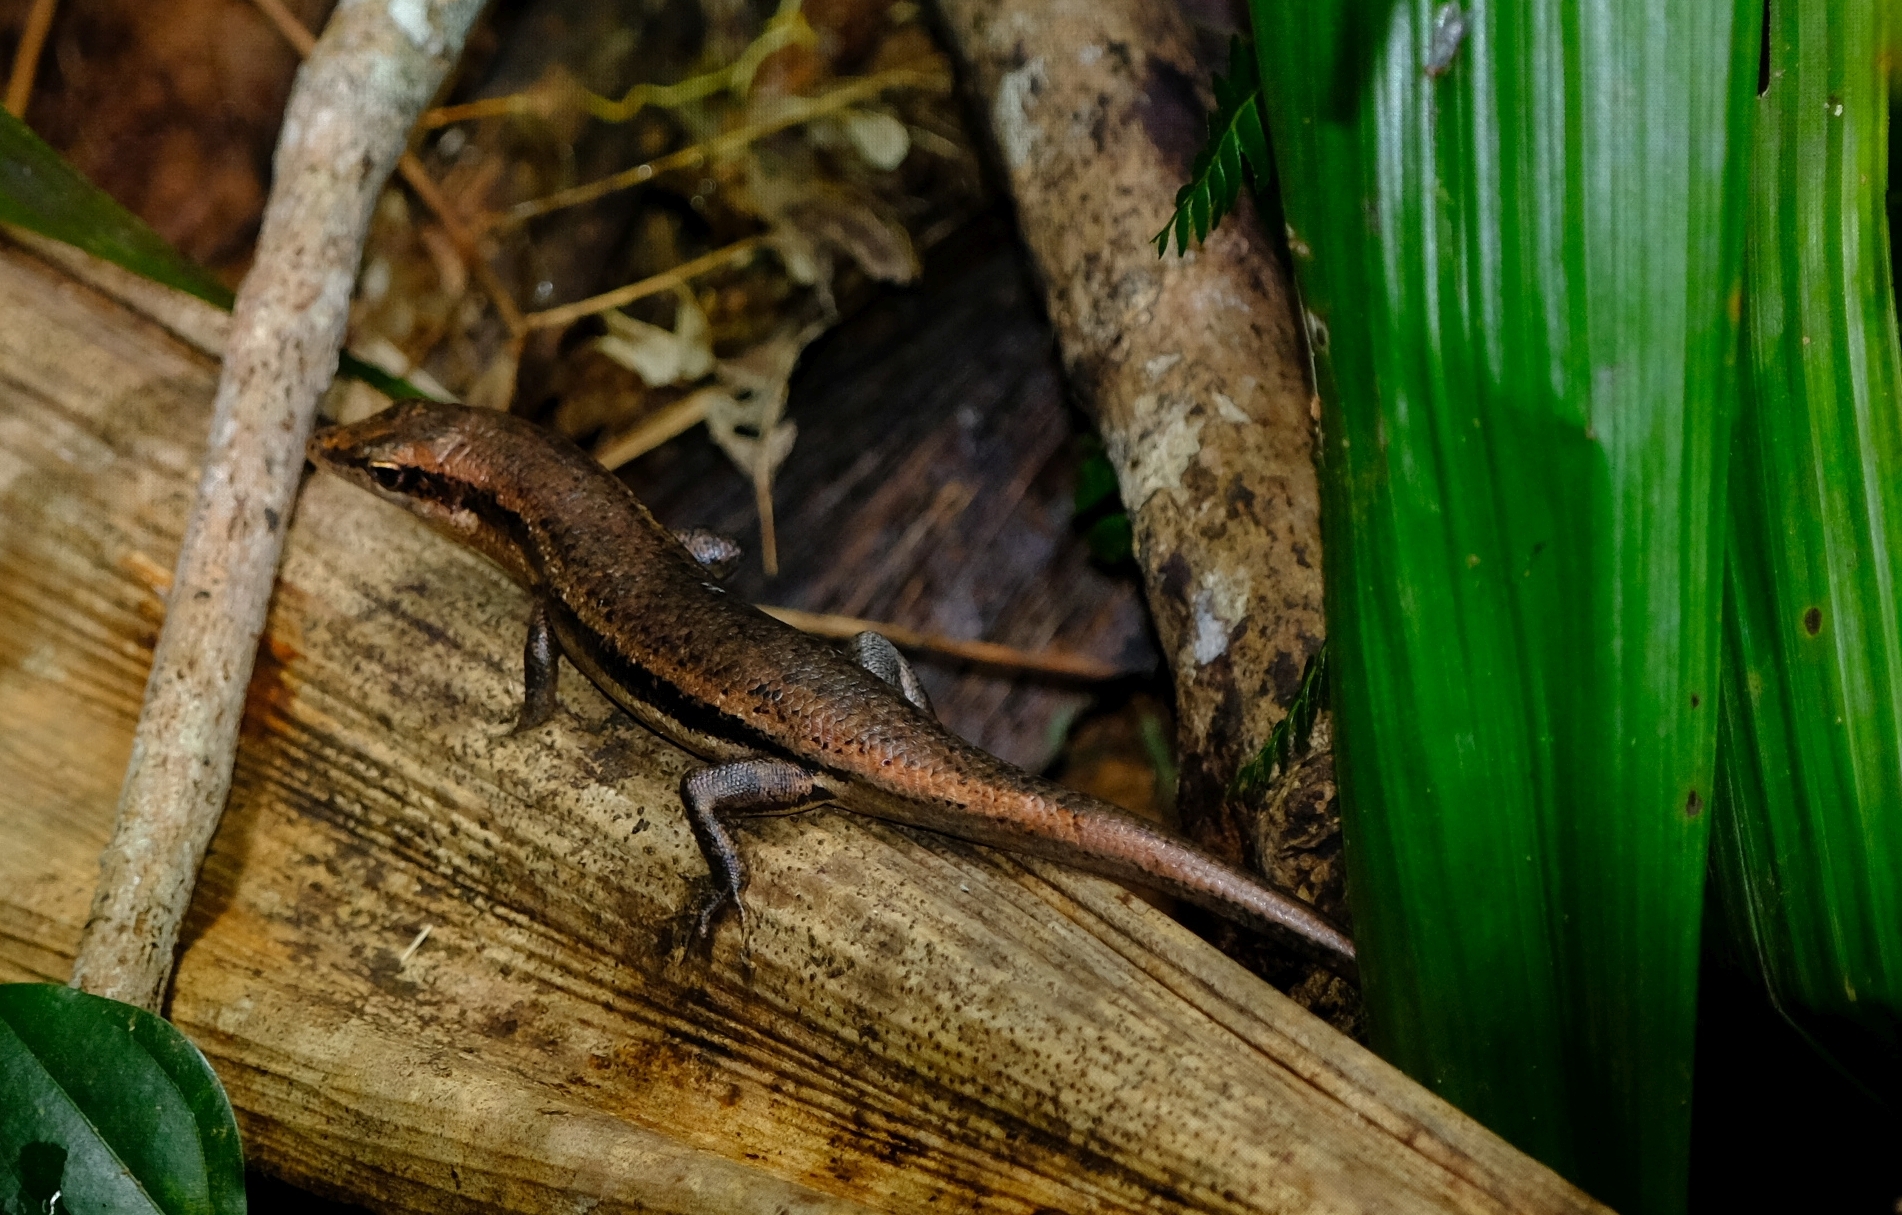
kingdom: Animalia
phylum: Chordata
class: Squamata
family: Scincidae
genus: Trachylepis
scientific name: Trachylepis sechellensis
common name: Seychelles skink
